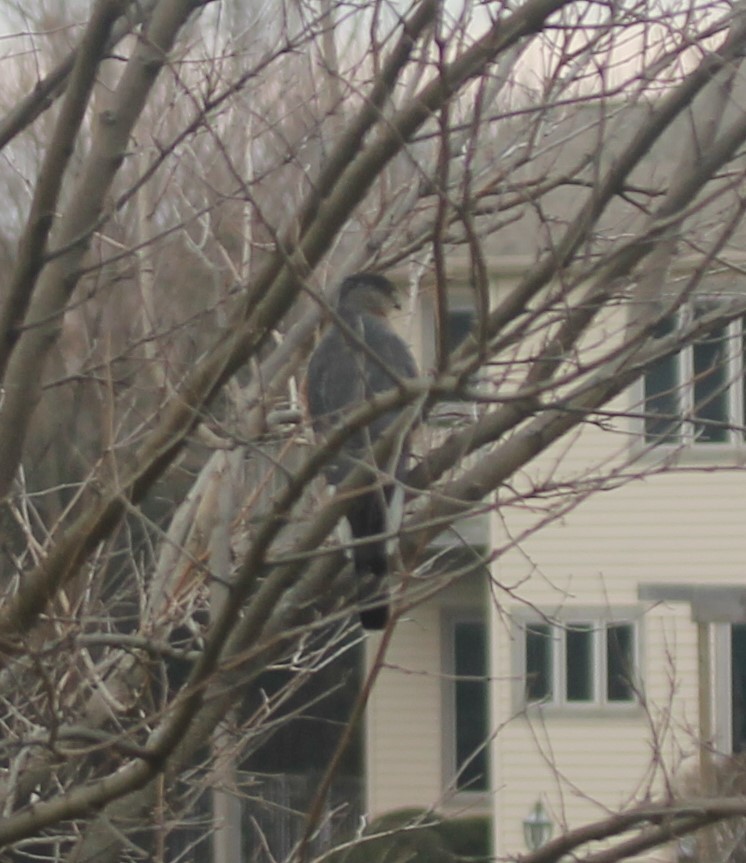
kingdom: Animalia
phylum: Chordata
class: Aves
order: Accipitriformes
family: Accipitridae
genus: Accipiter
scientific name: Accipiter cooperii
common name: Cooper's hawk
